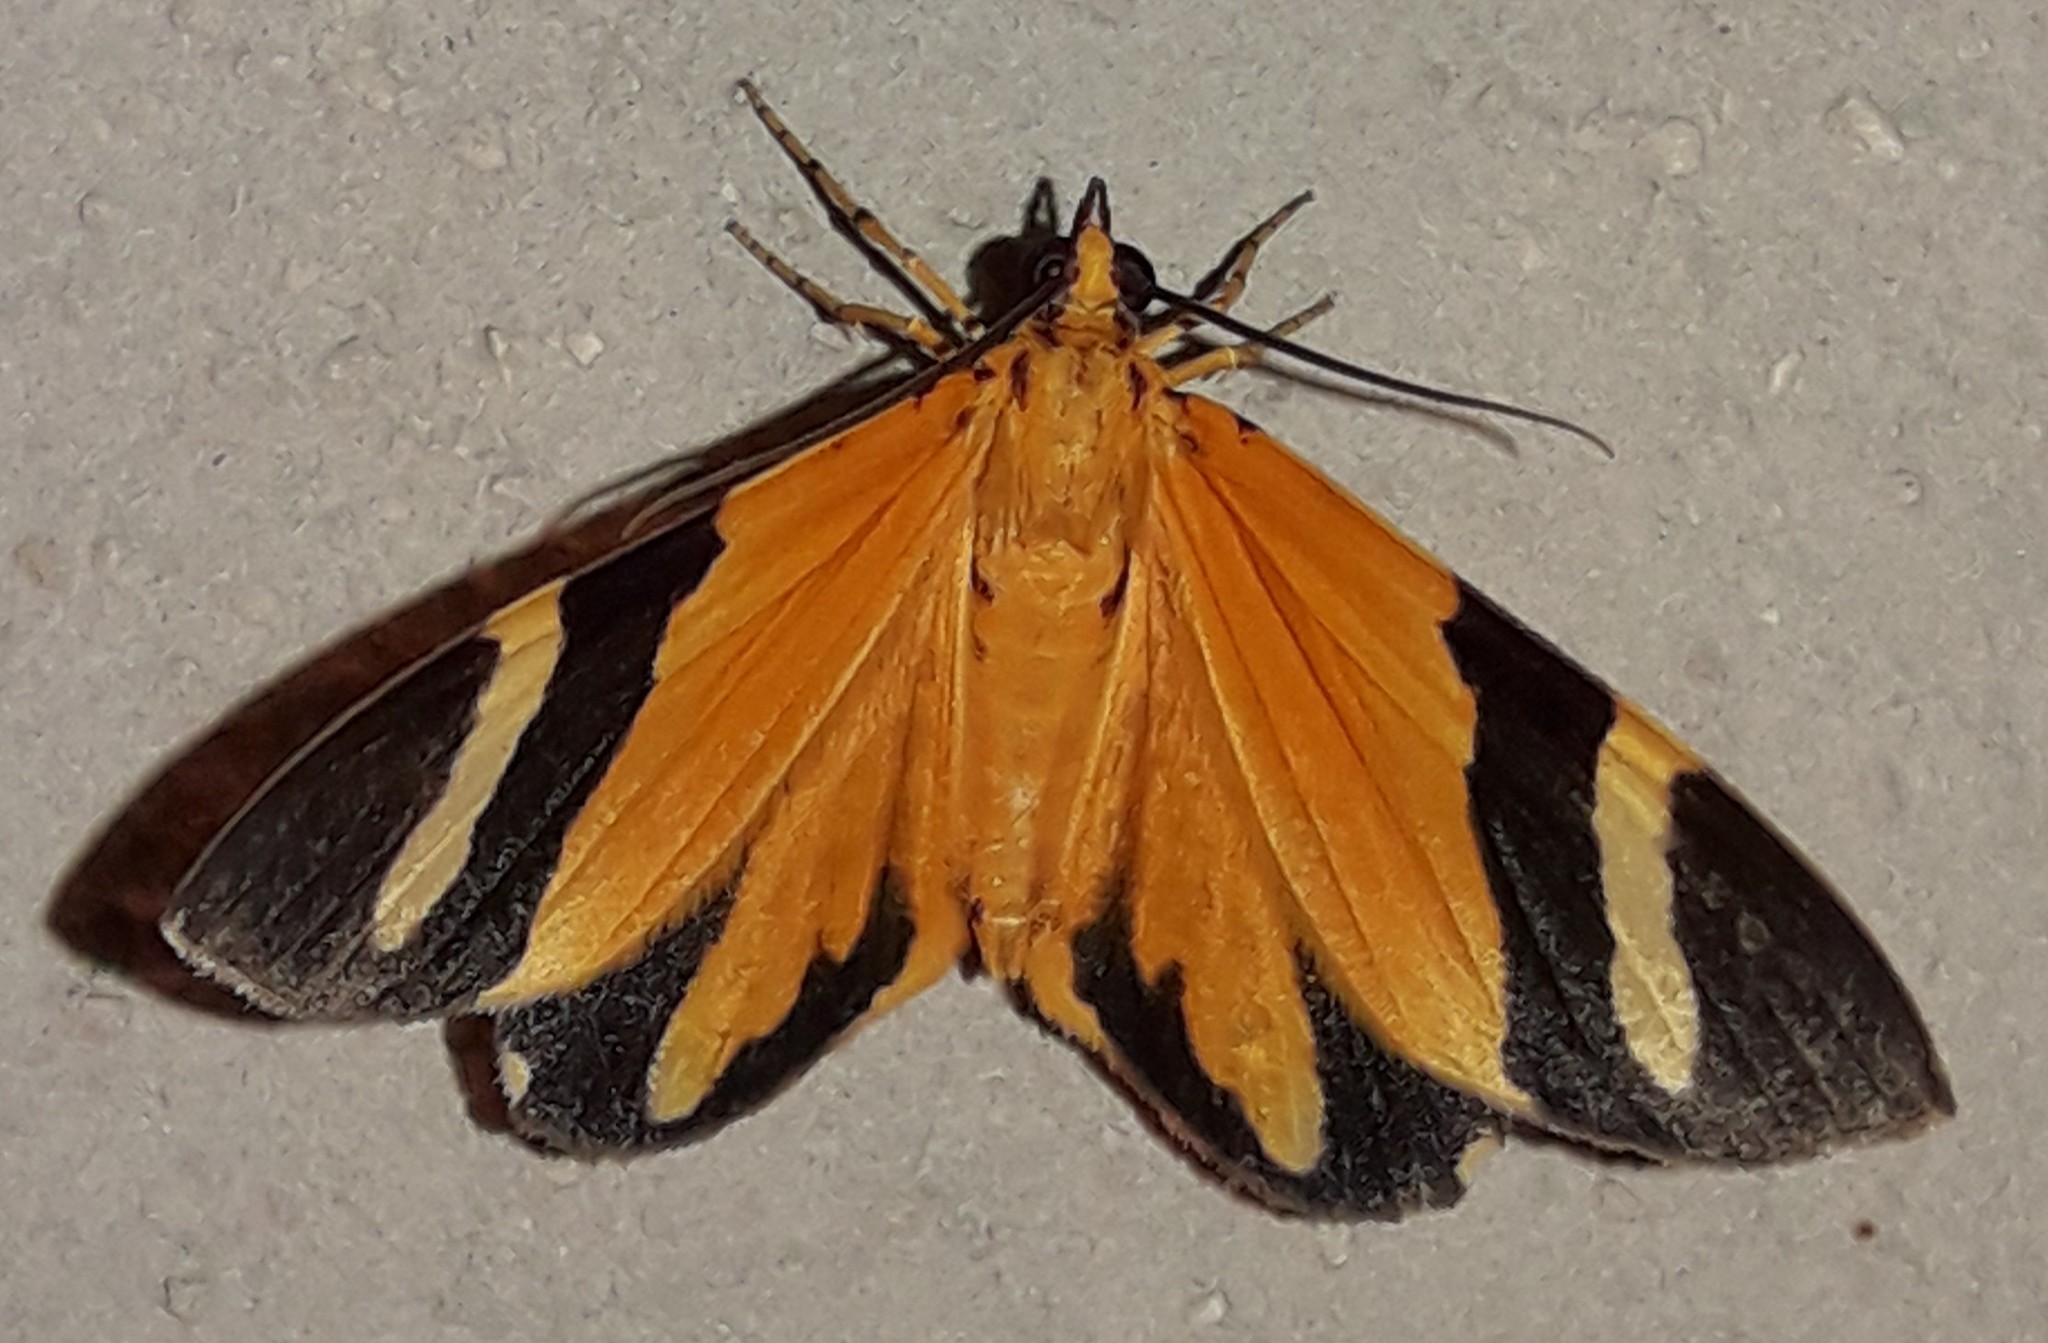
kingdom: Animalia
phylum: Arthropoda
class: Insecta
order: Lepidoptera
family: Geometridae
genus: Hagnagora
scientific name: Hagnagora clustimena
